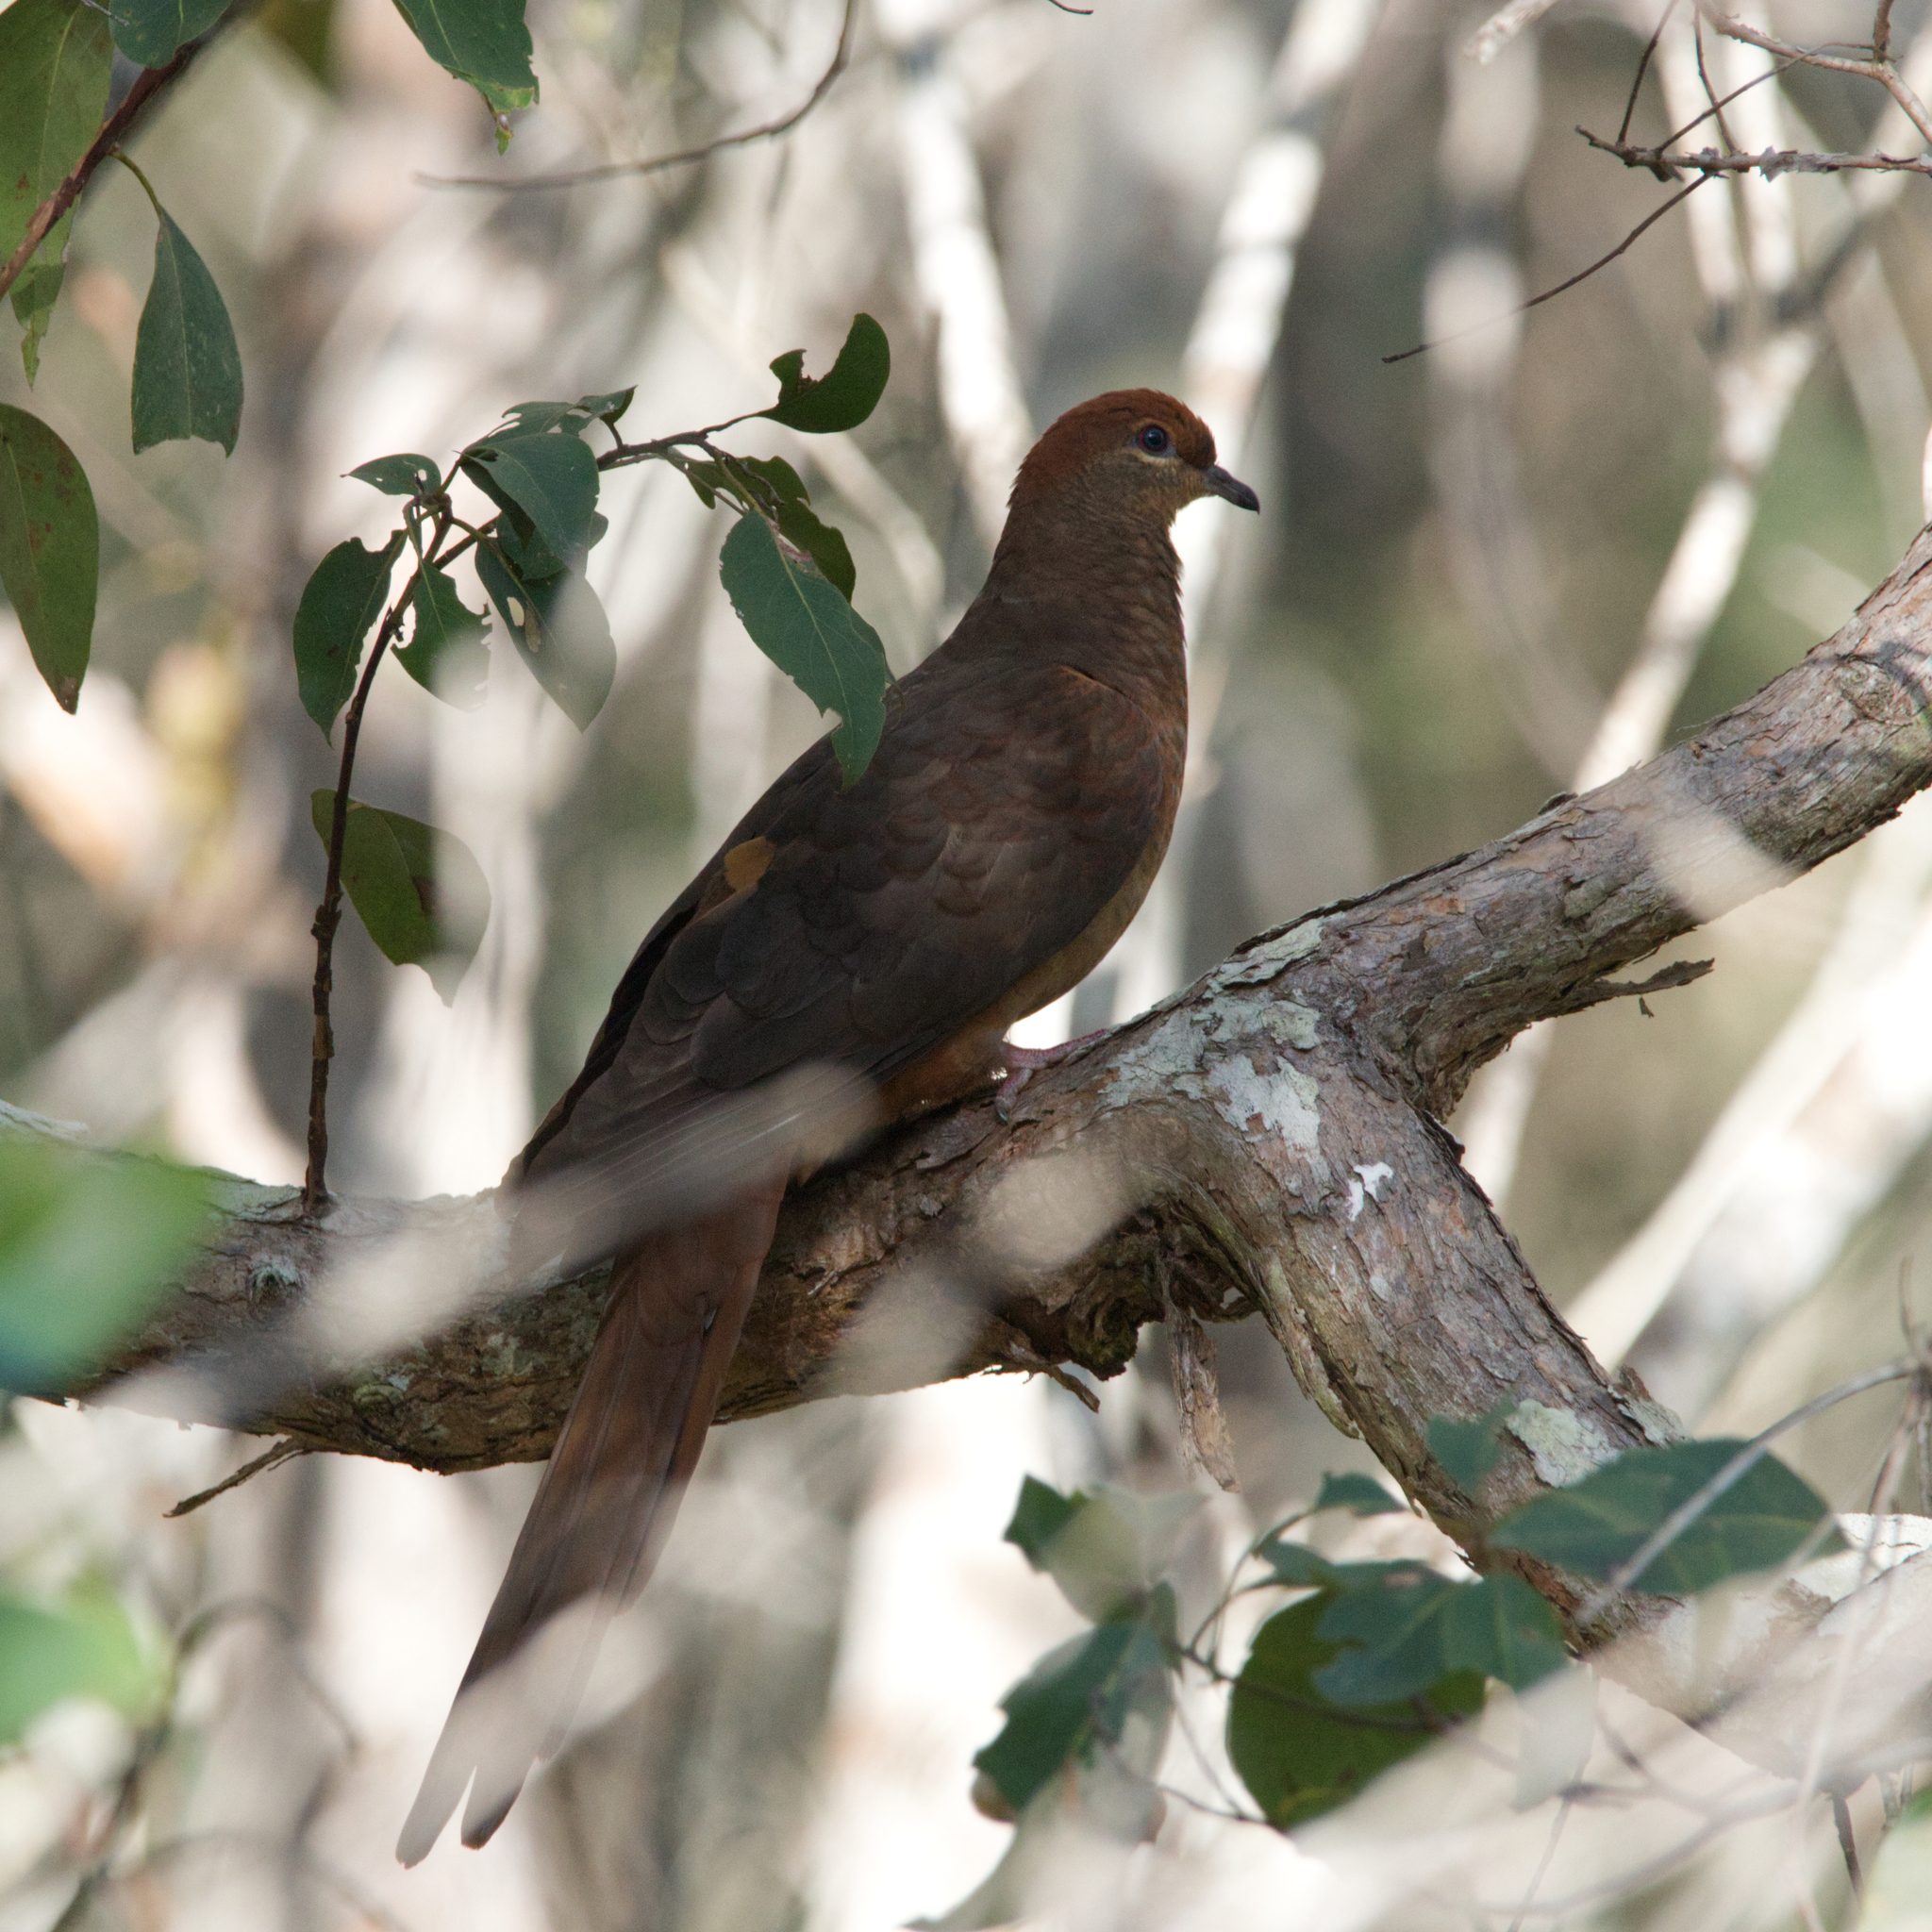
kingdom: Animalia
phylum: Chordata
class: Aves
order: Columbiformes
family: Columbidae
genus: Macropygia
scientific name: Macropygia phasianella
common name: Brown cuckoo-dove
